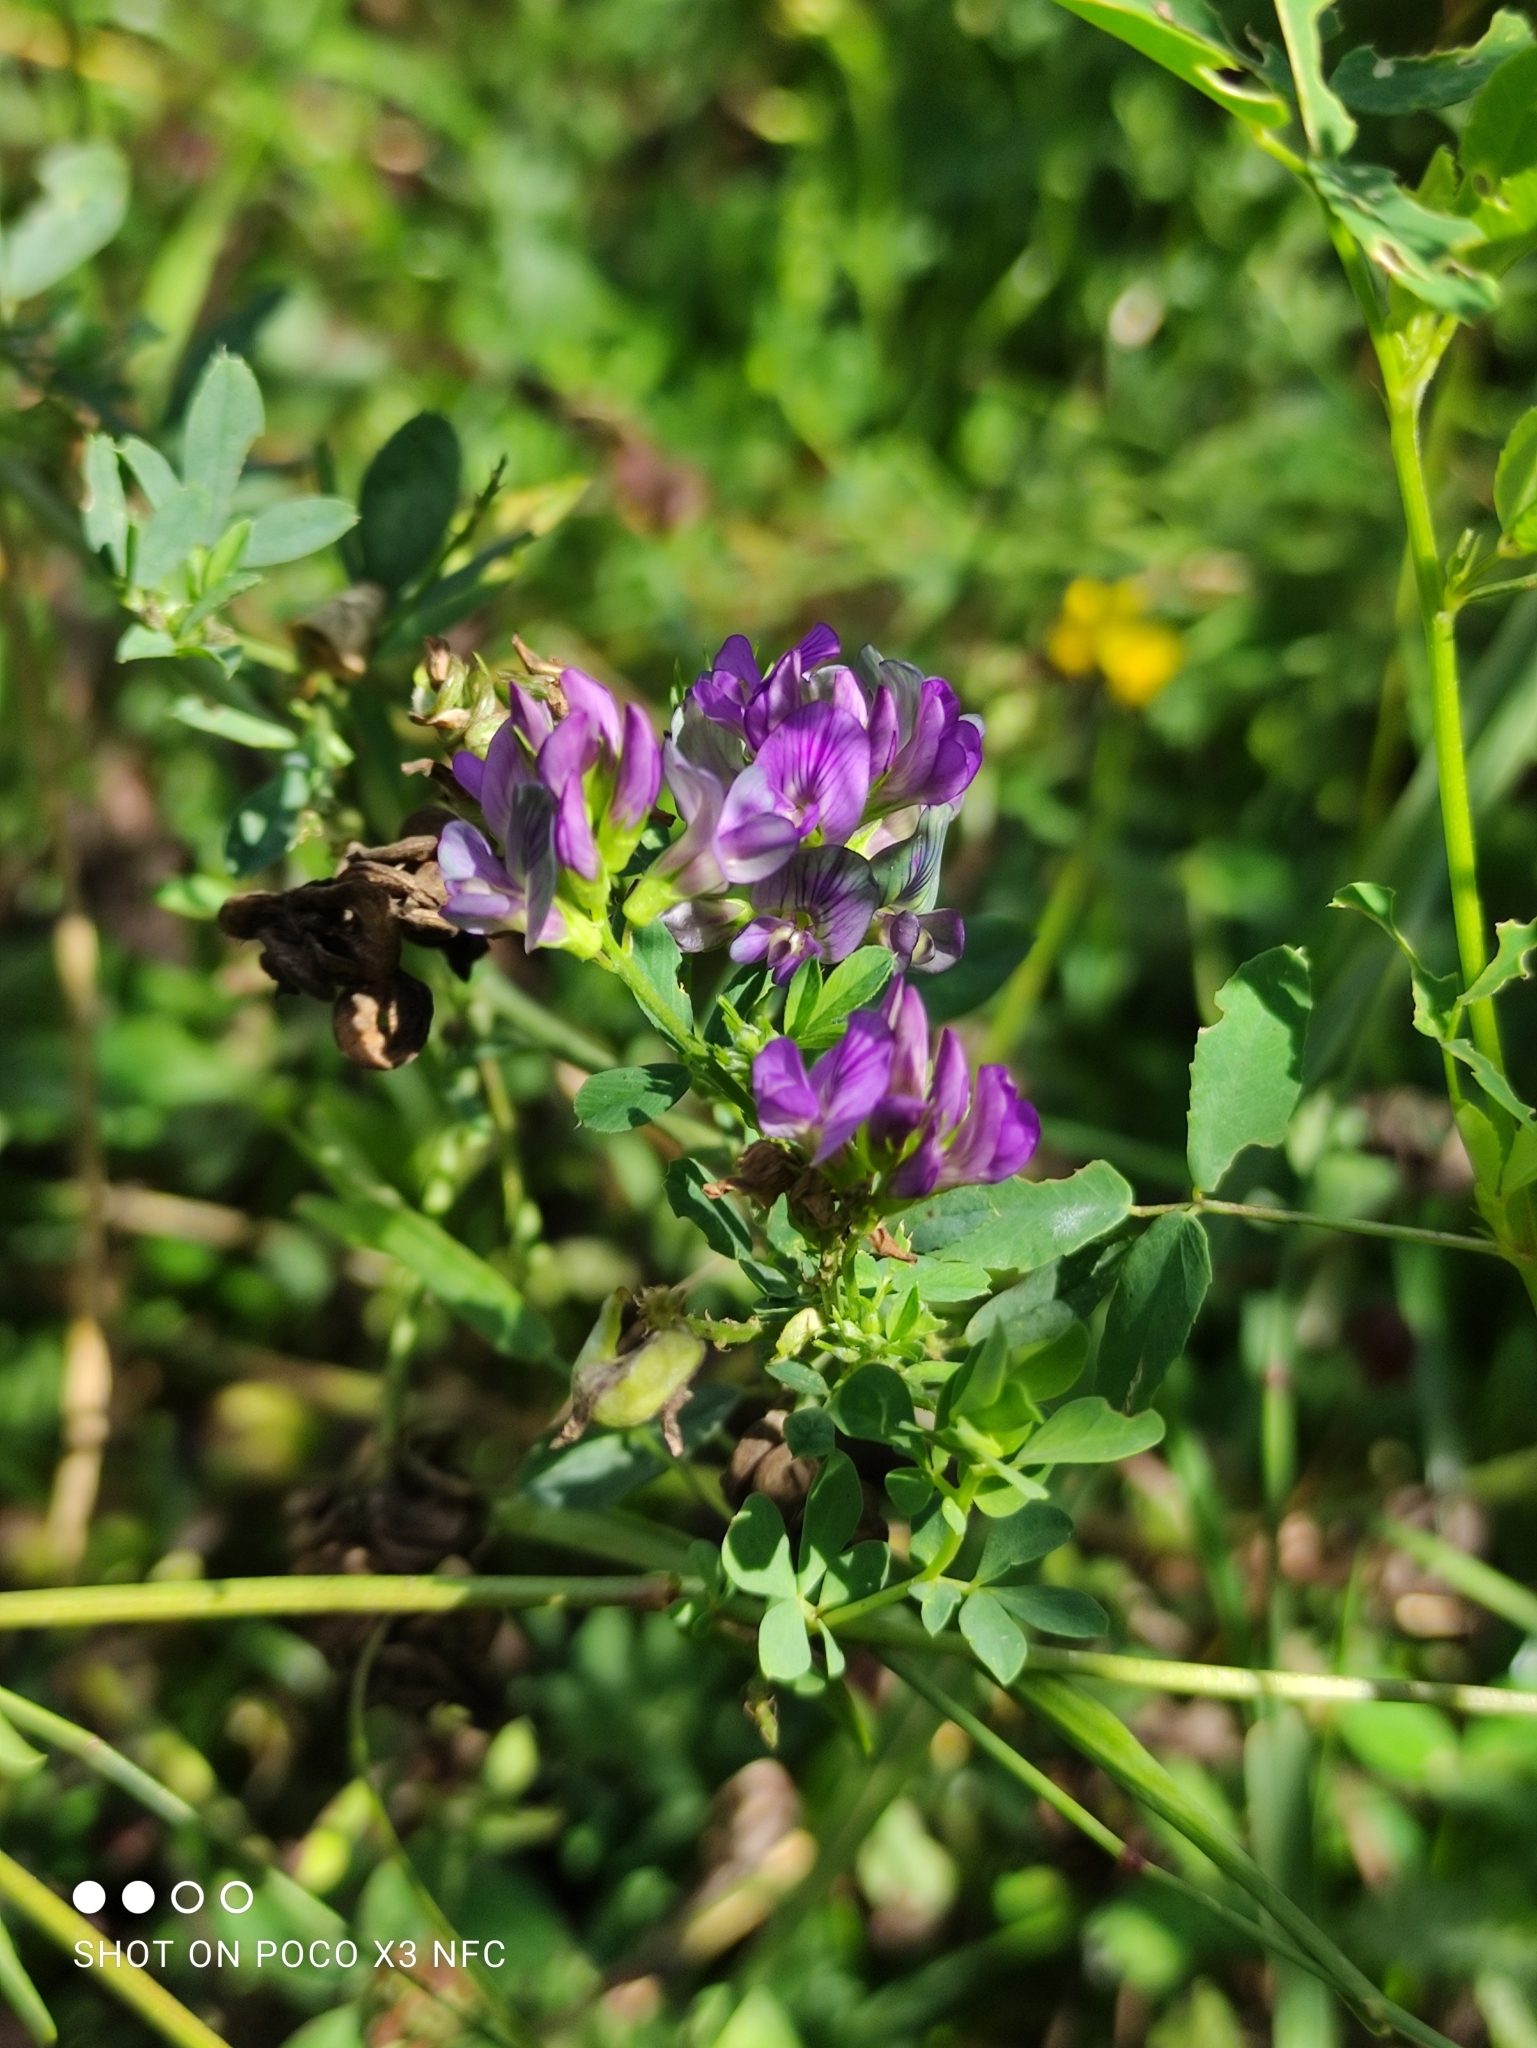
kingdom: Plantae
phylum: Tracheophyta
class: Magnoliopsida
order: Fabales
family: Fabaceae
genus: Medicago
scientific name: Medicago varia
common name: Sand lucerne
